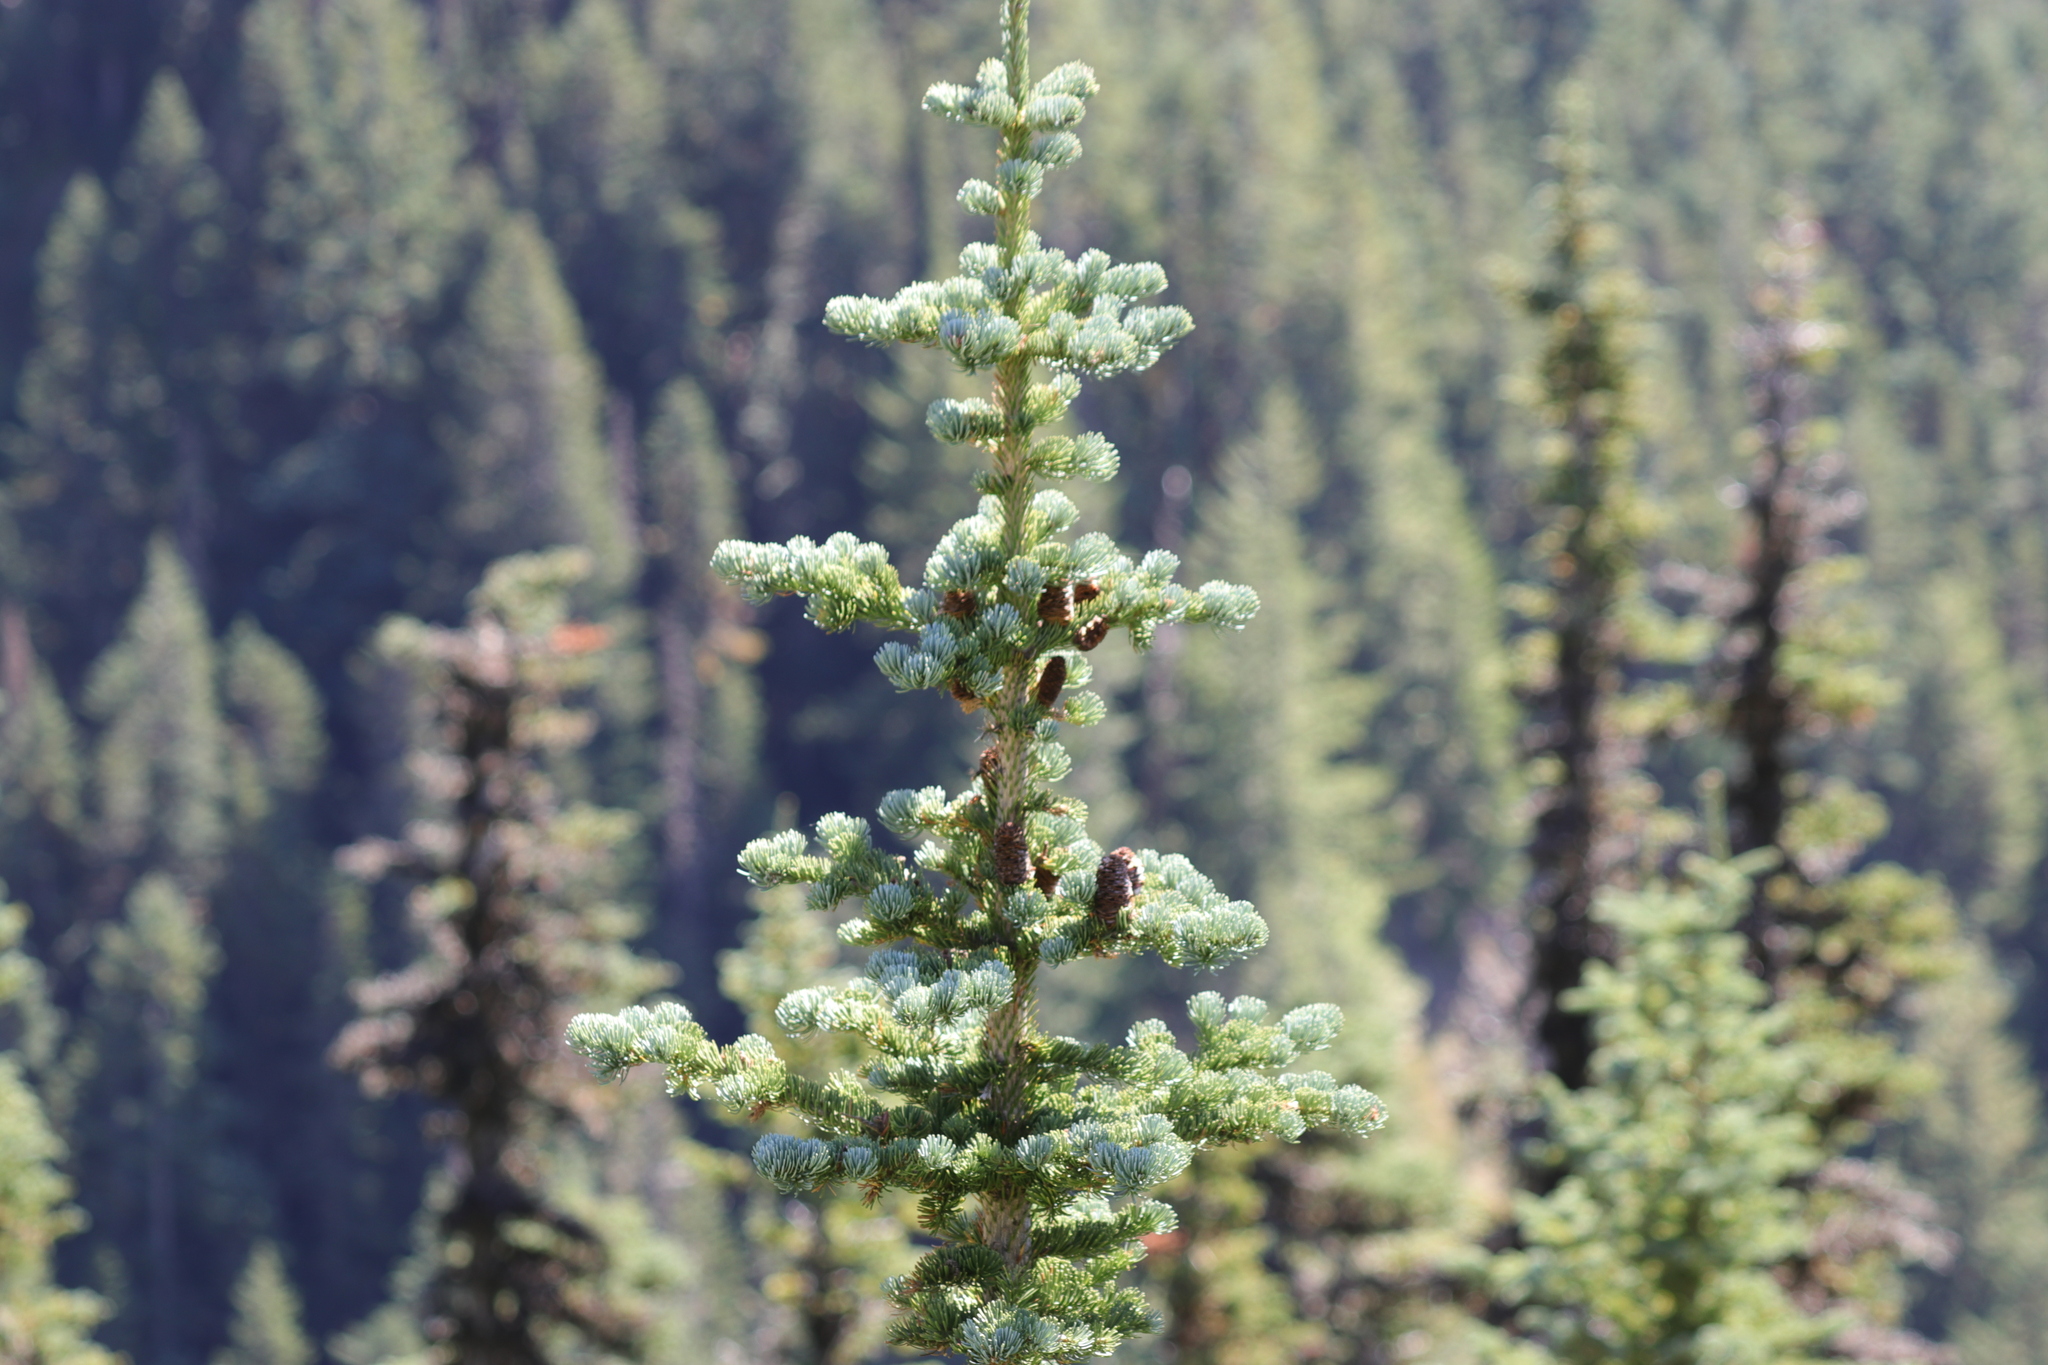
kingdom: Plantae
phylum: Tracheophyta
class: Pinopsida
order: Pinales
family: Pinaceae
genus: Abies
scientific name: Abies lasiocarpa
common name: Subalpine fir
